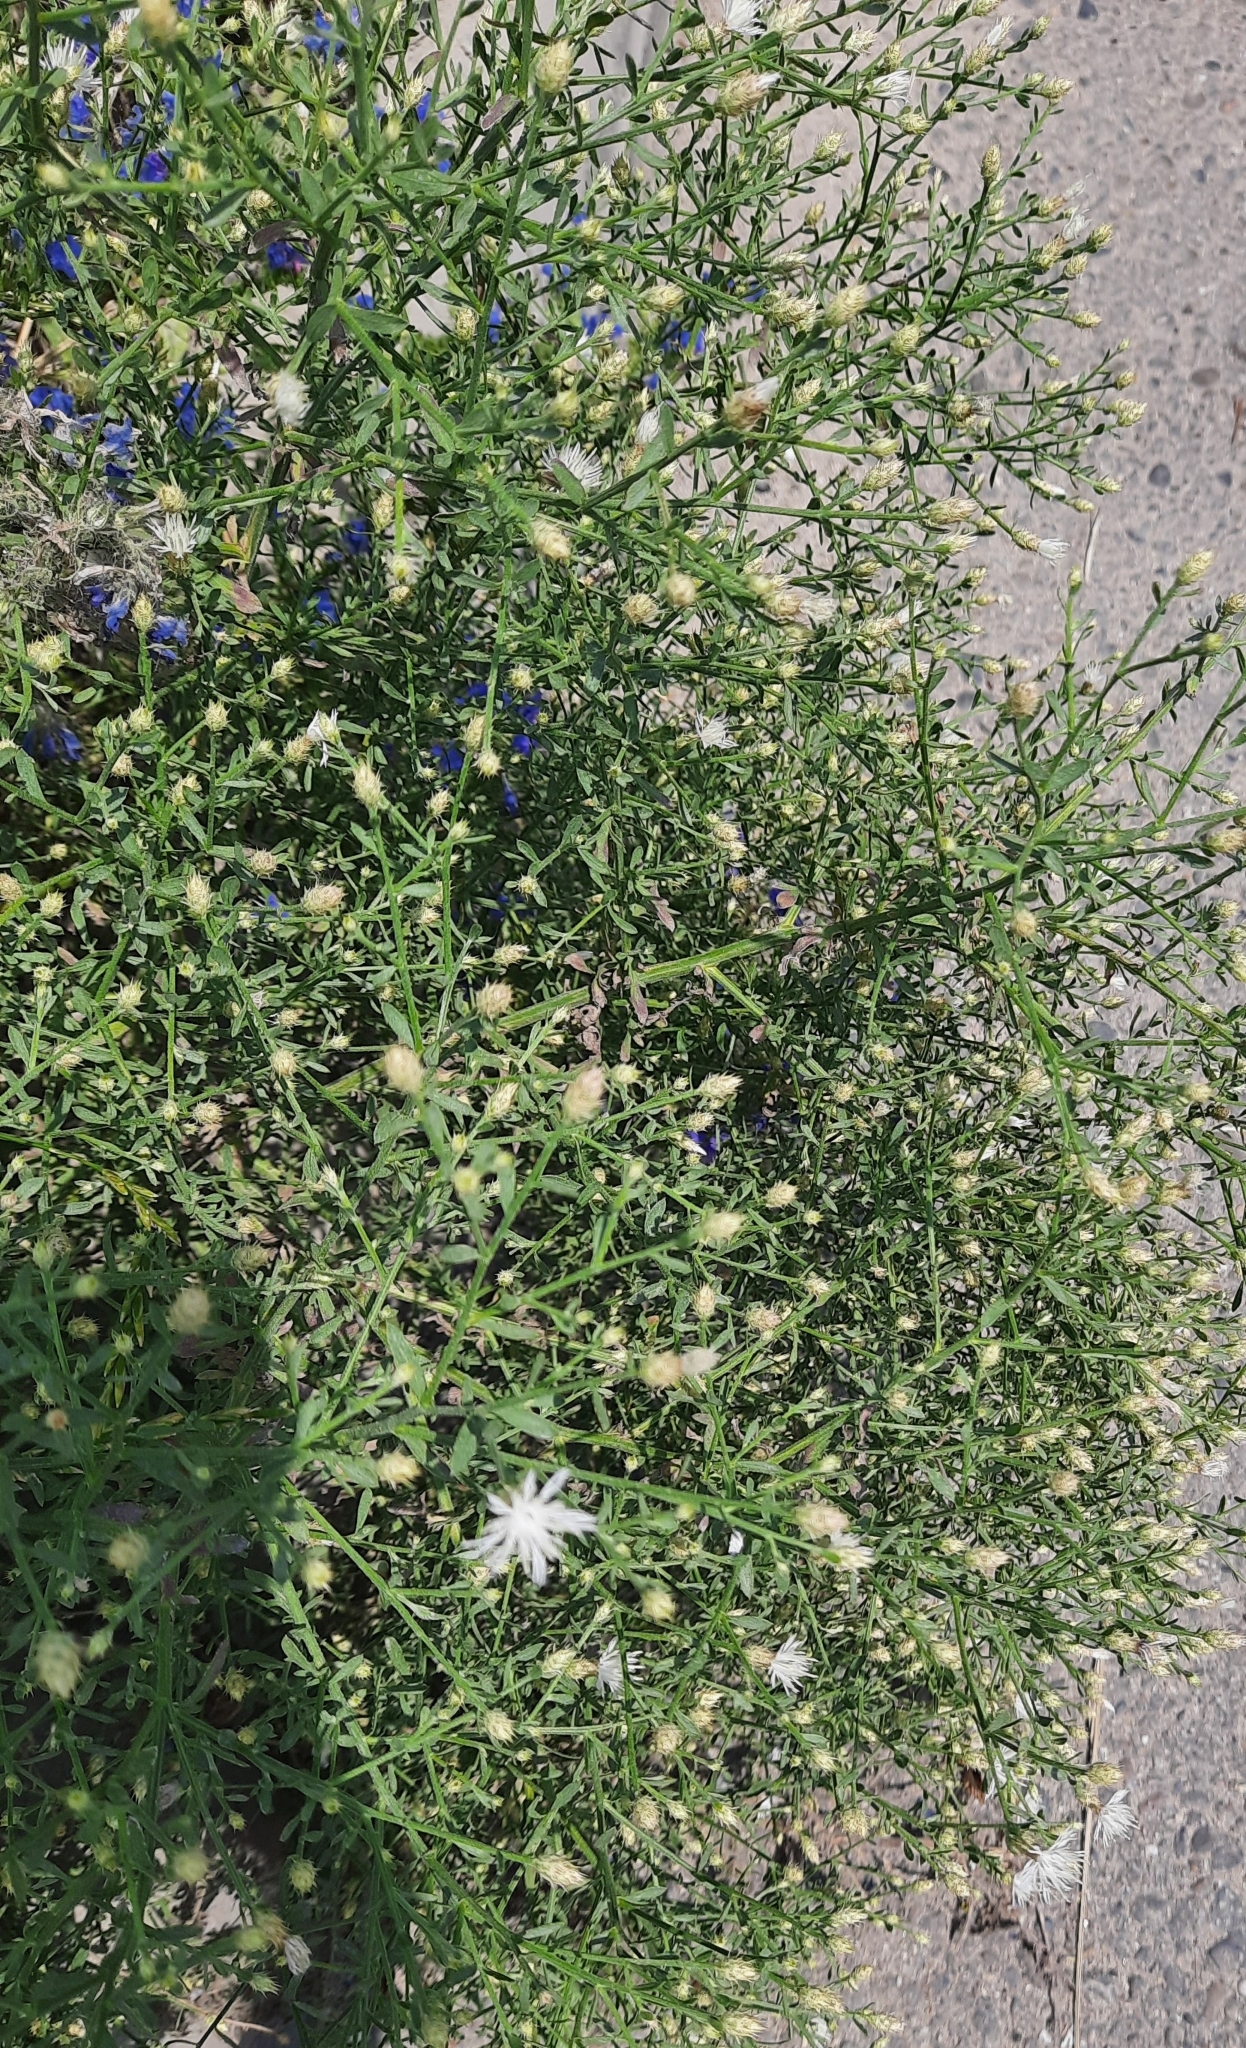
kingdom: Plantae
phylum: Tracheophyta
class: Magnoliopsida
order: Asterales
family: Asteraceae
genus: Centaurea
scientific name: Centaurea diffusa
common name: Diffuse knapweed
